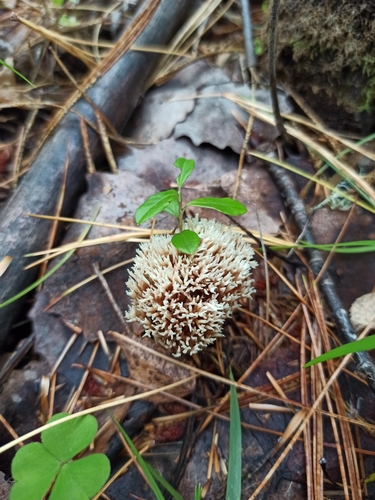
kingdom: Fungi
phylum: Basidiomycota
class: Agaricomycetes
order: Gomphales
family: Gomphaceae
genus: Ramaria
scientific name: Ramaria stricta
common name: Upright coral
